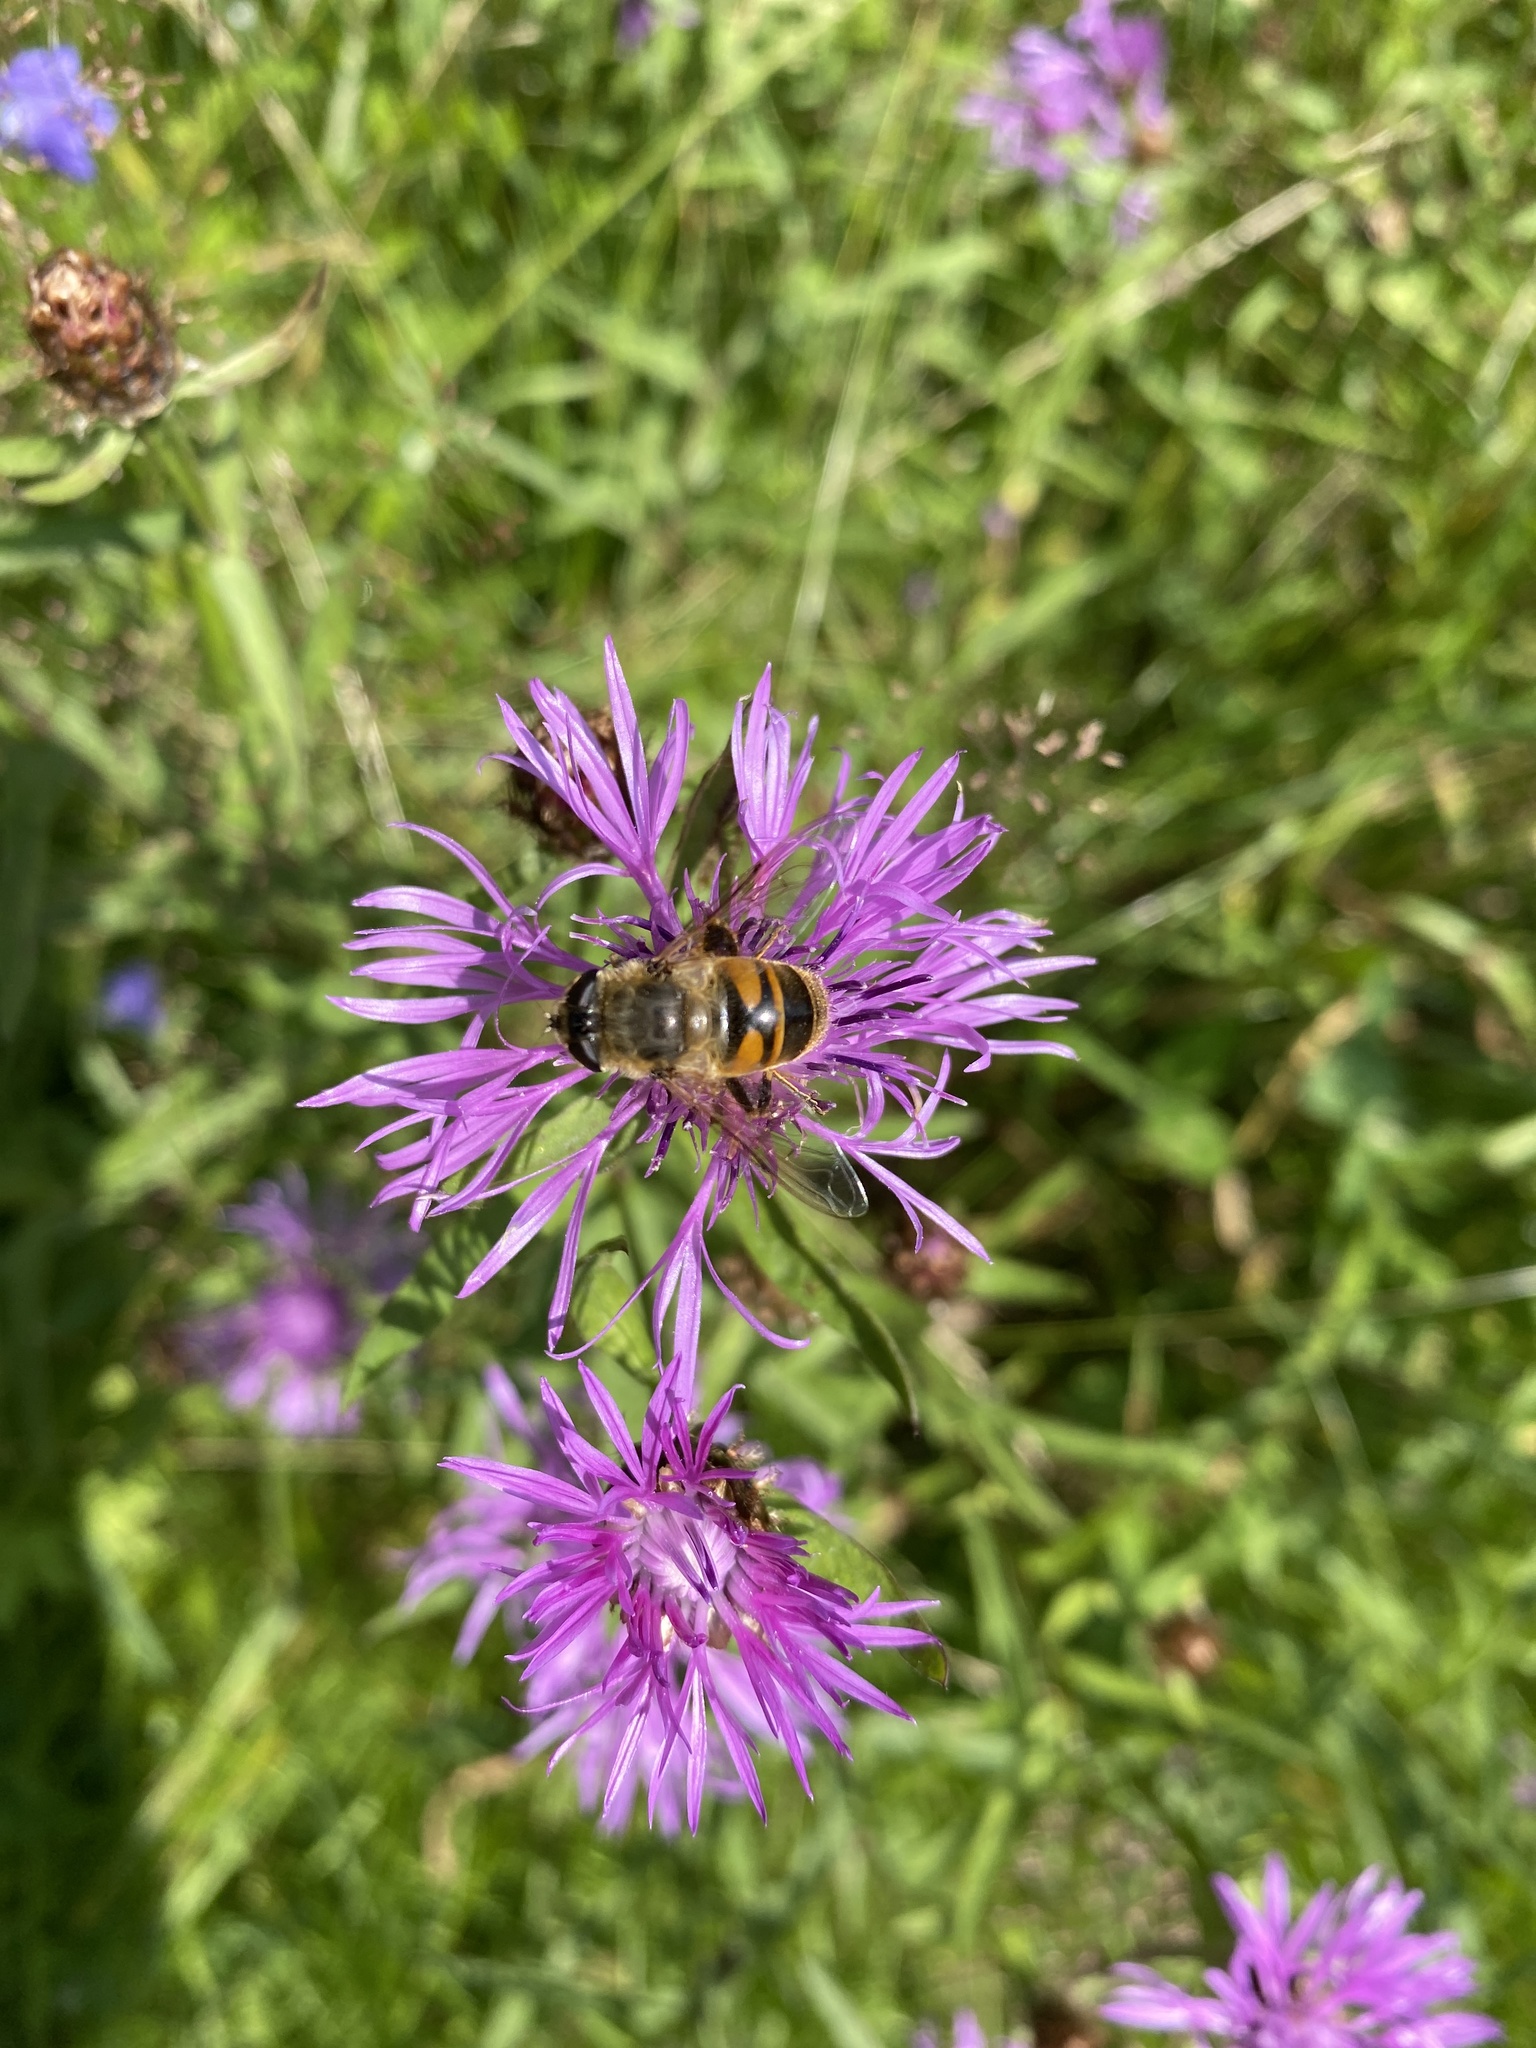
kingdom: Animalia
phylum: Arthropoda
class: Insecta
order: Diptera
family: Syrphidae
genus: Eristalis
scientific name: Eristalis tenax
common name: Drone fly
